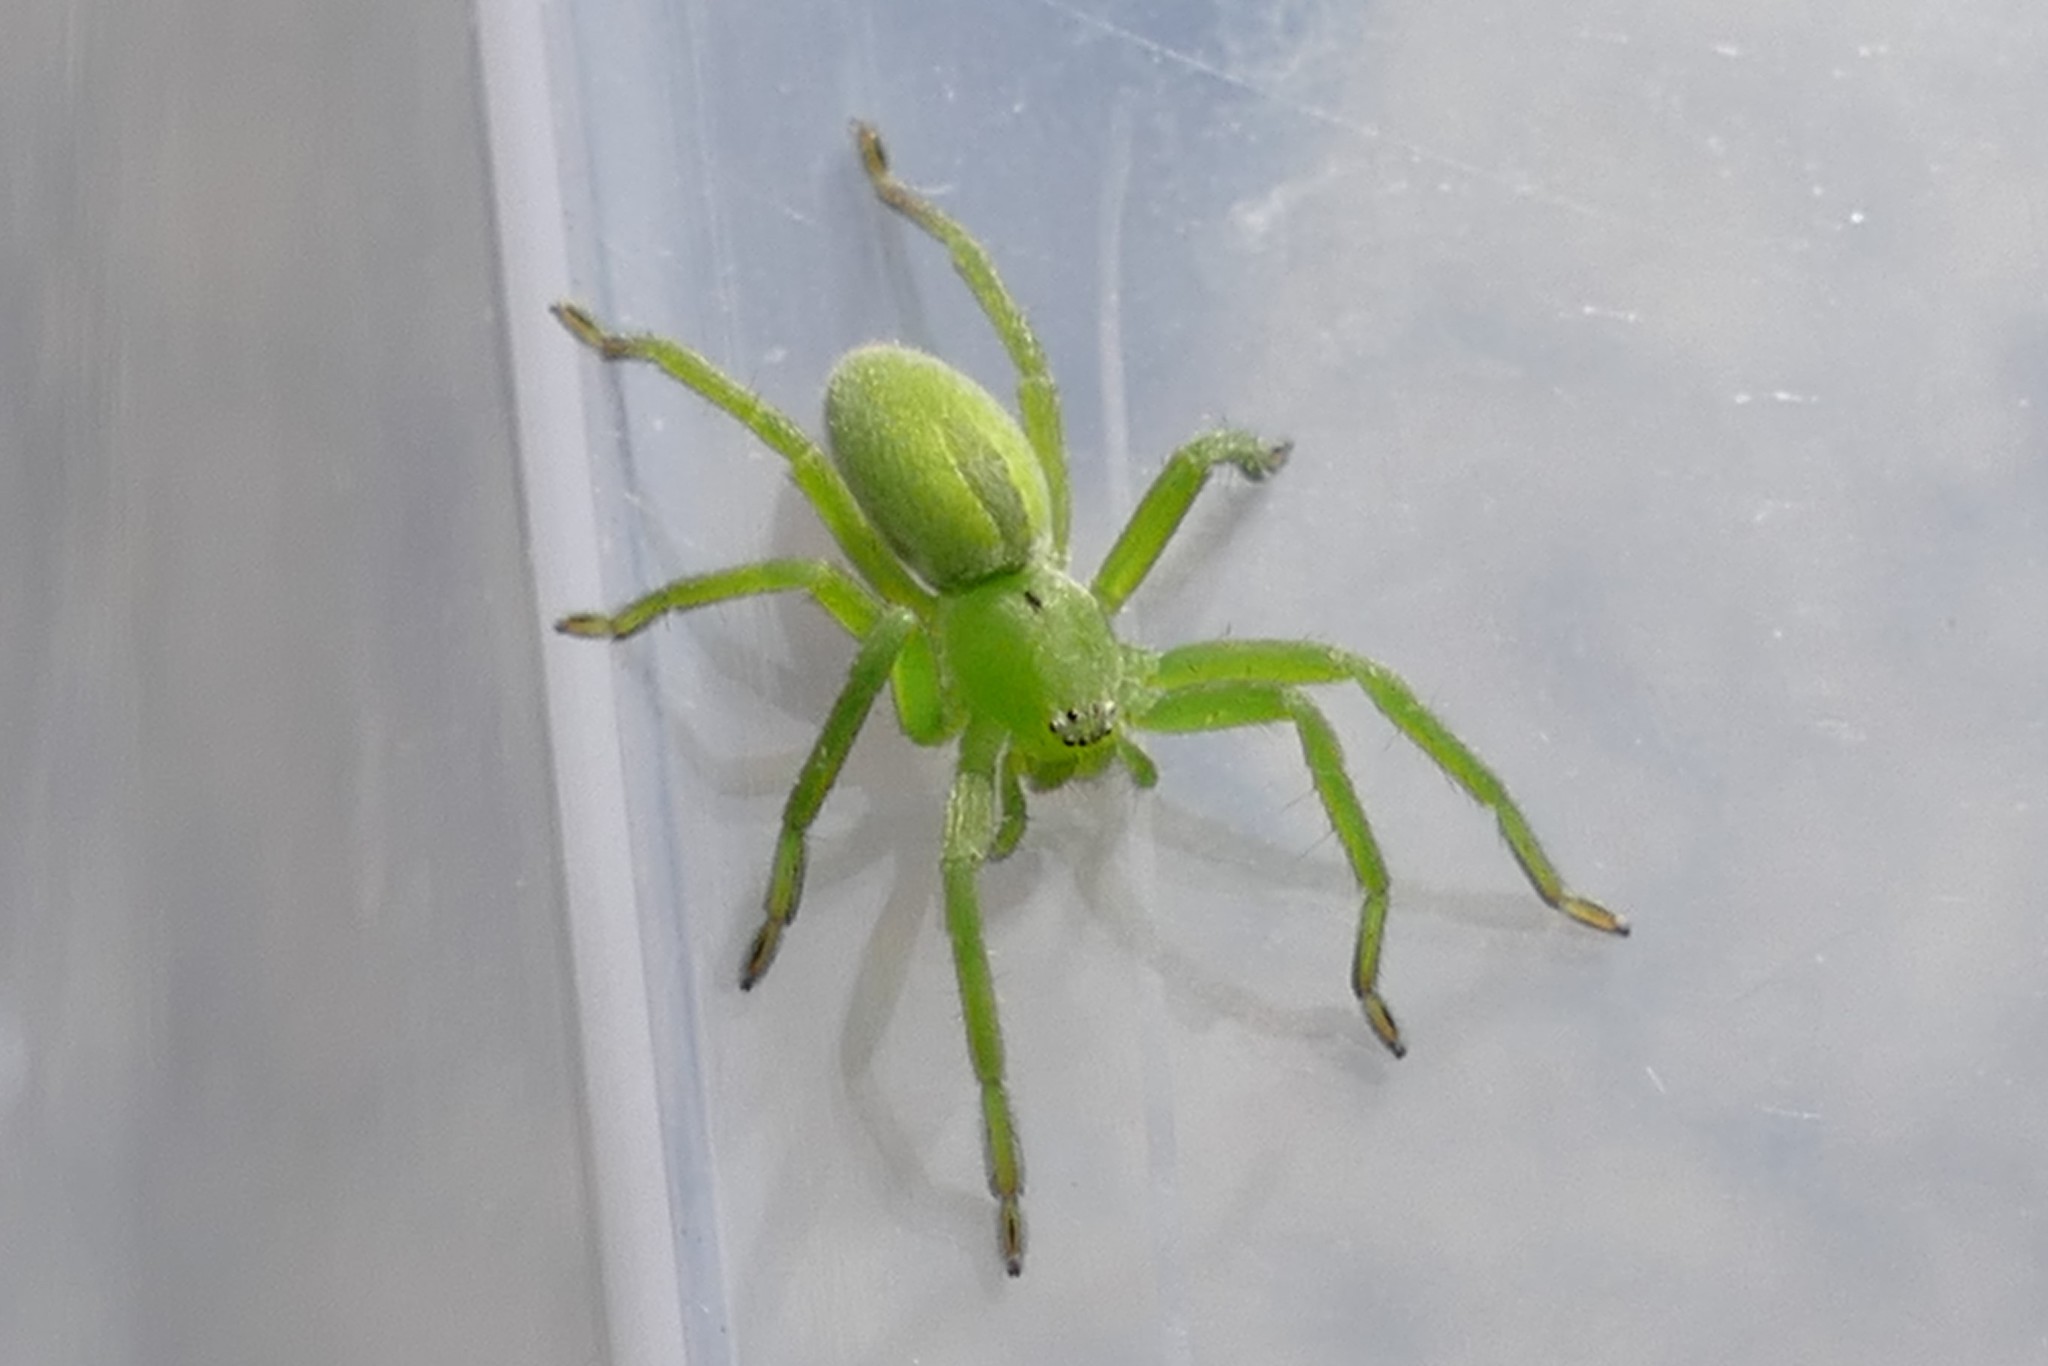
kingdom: Animalia
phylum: Arthropoda
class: Arachnida
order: Araneae
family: Sparassidae
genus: Micrommata
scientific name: Micrommata ligurina
